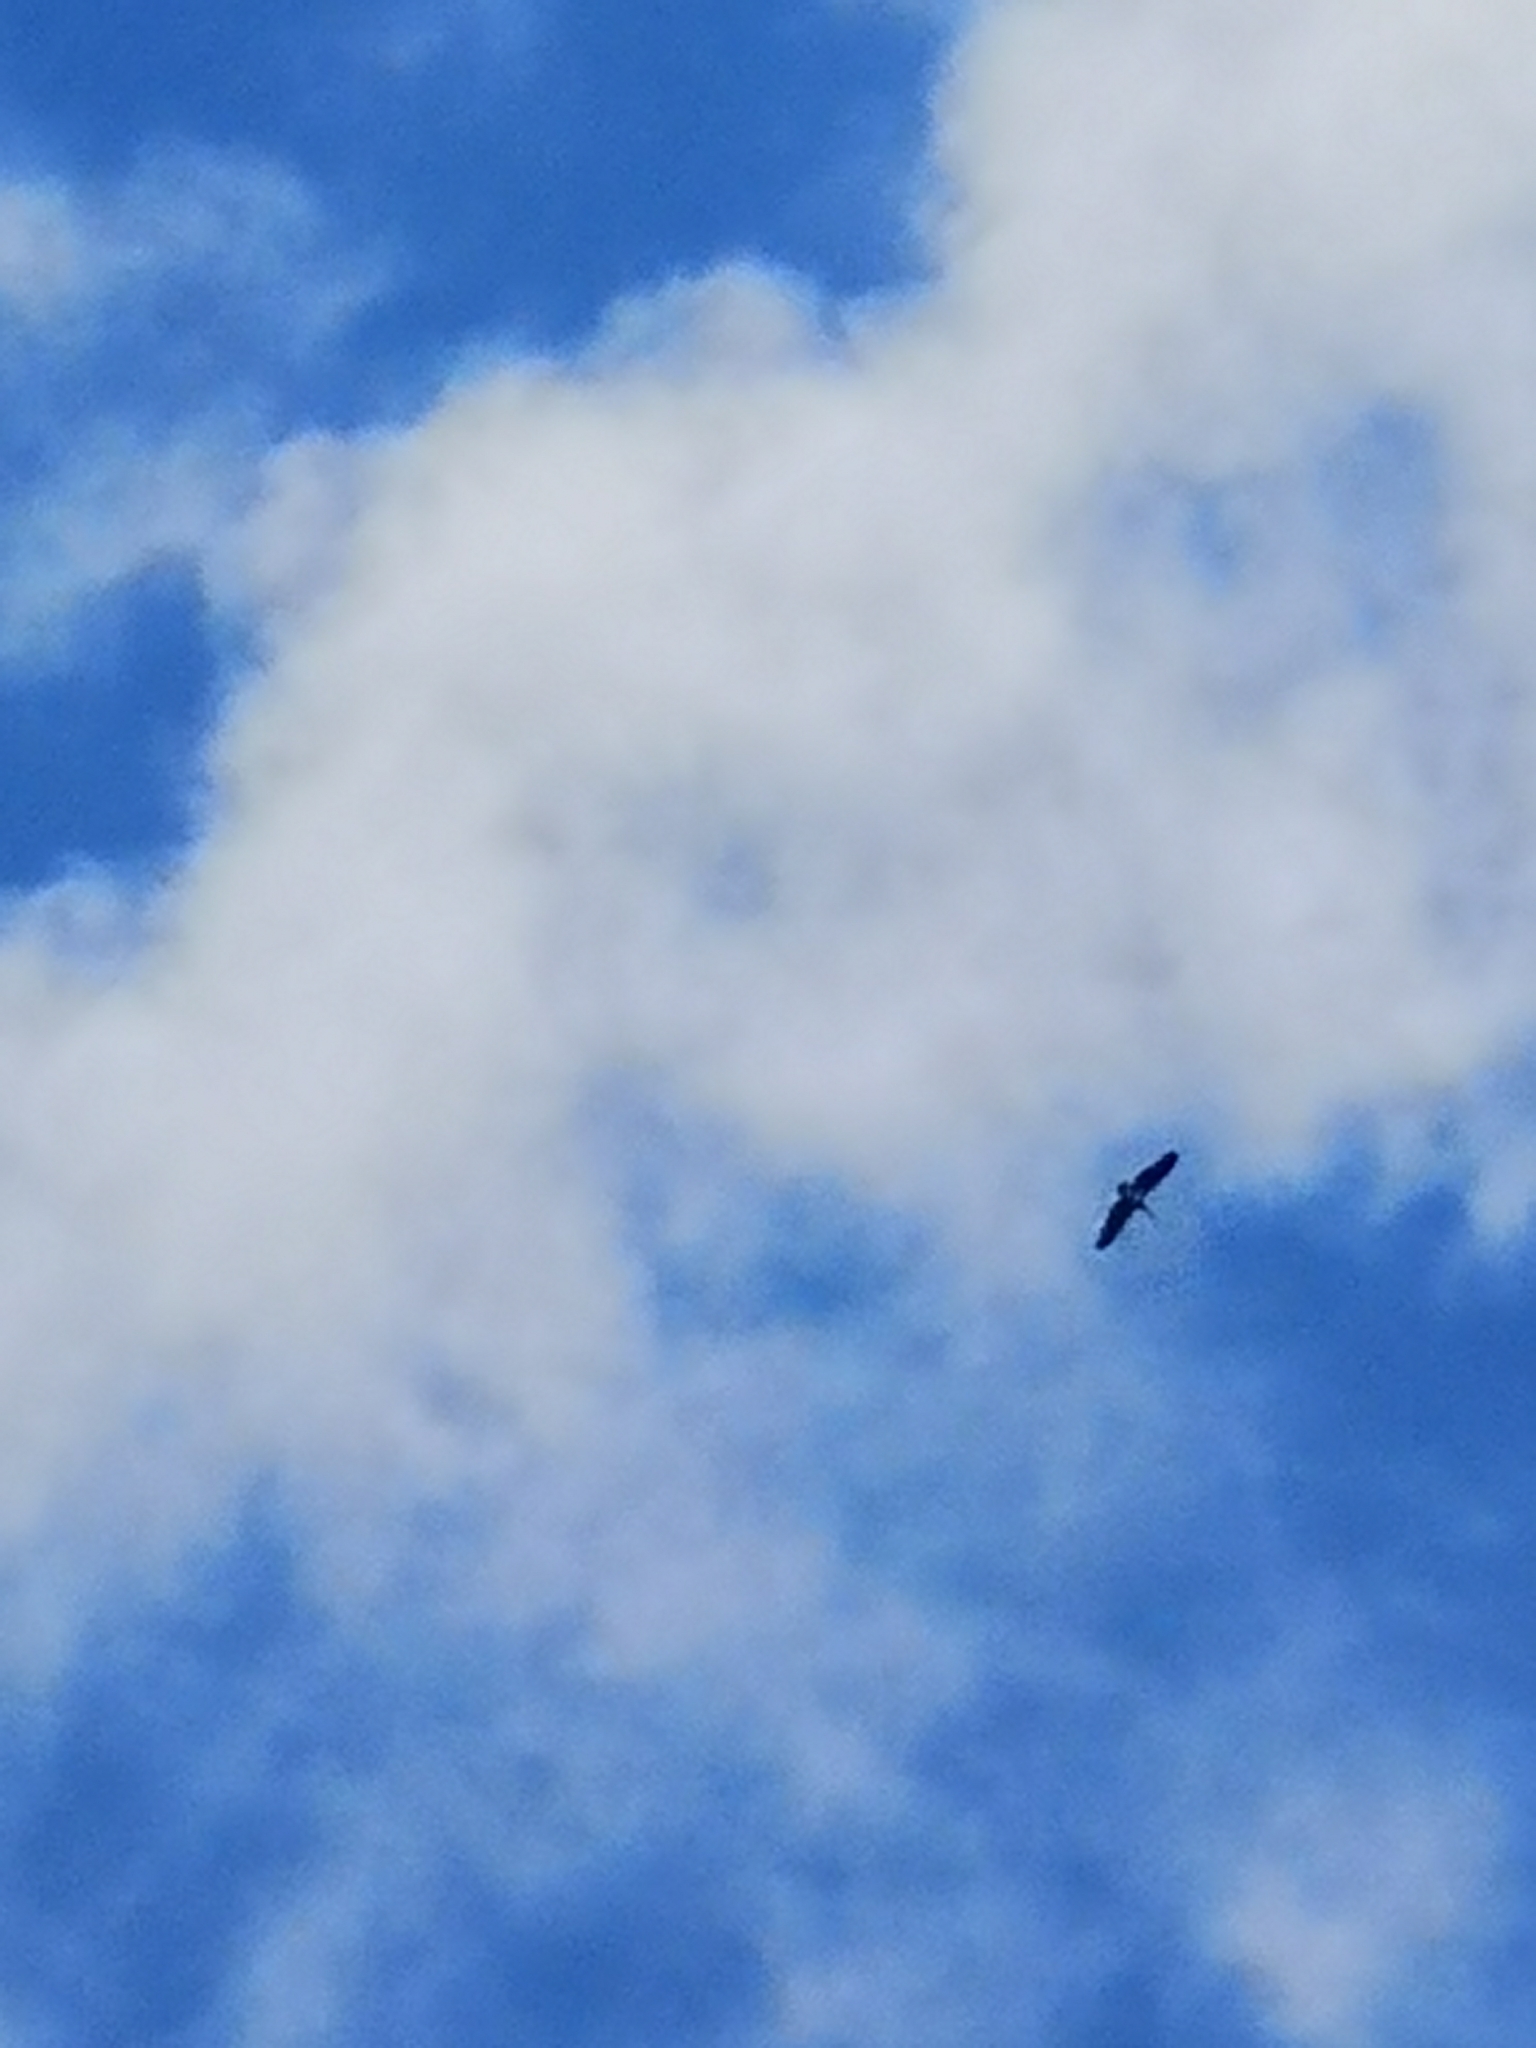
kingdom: Animalia
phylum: Chordata
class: Aves
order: Ciconiiformes
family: Ciconiidae
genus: Ciconia
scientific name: Ciconia nigra
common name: Black stork
